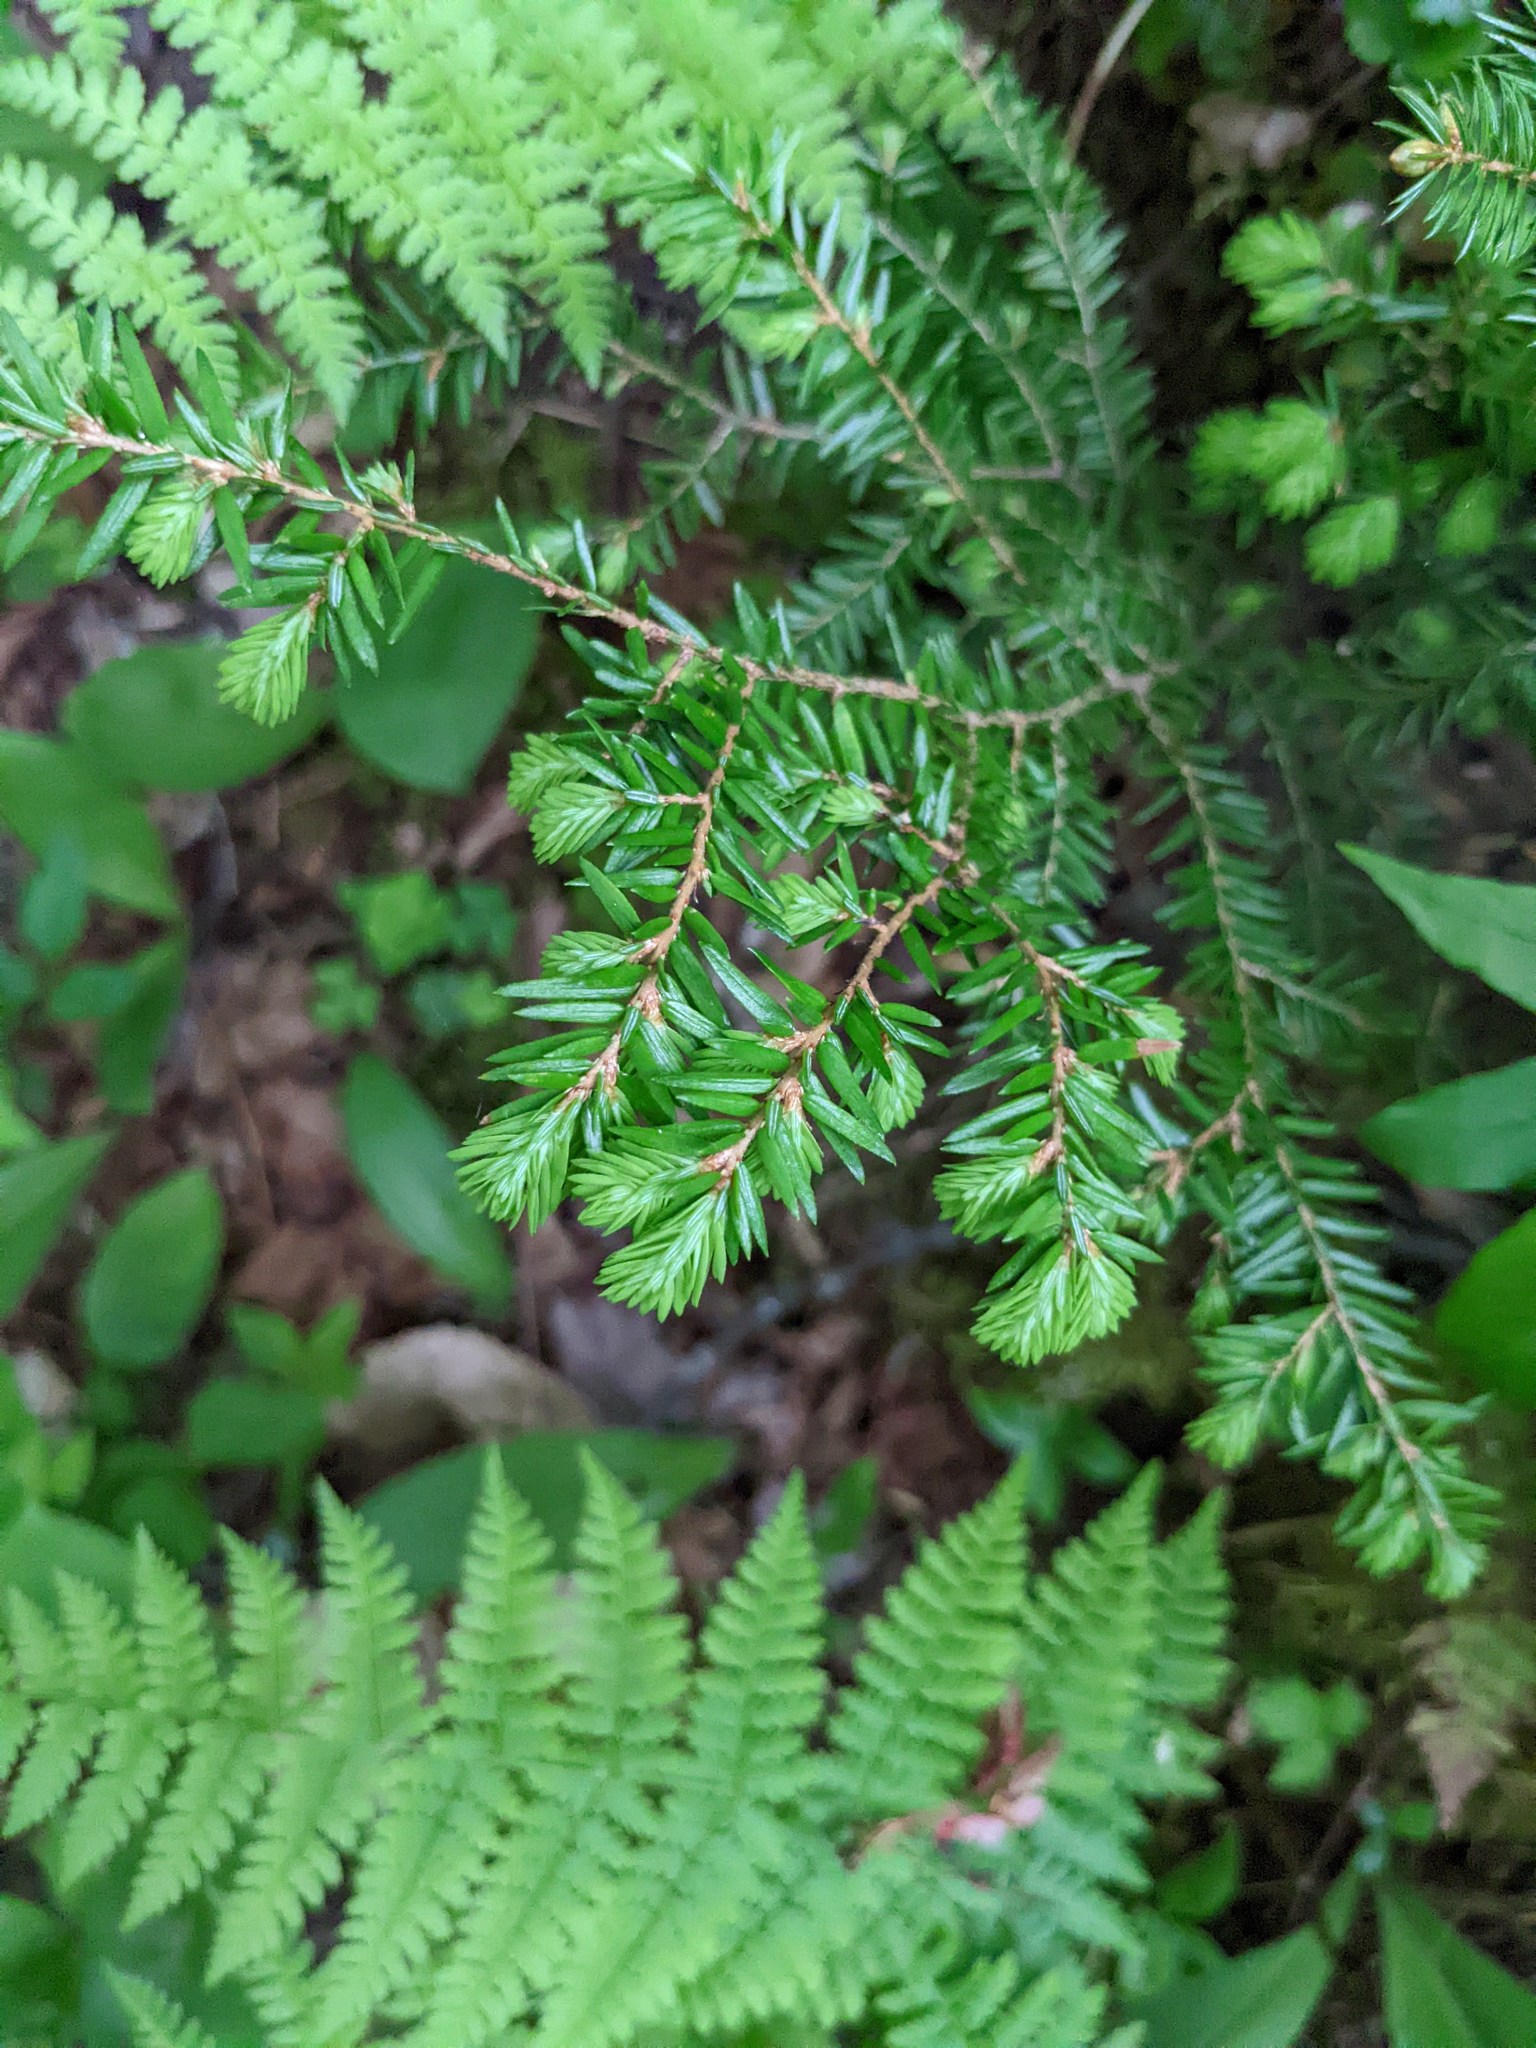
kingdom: Plantae
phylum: Tracheophyta
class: Pinopsida
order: Pinales
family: Pinaceae
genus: Tsuga
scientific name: Tsuga canadensis
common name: Eastern hemlock
